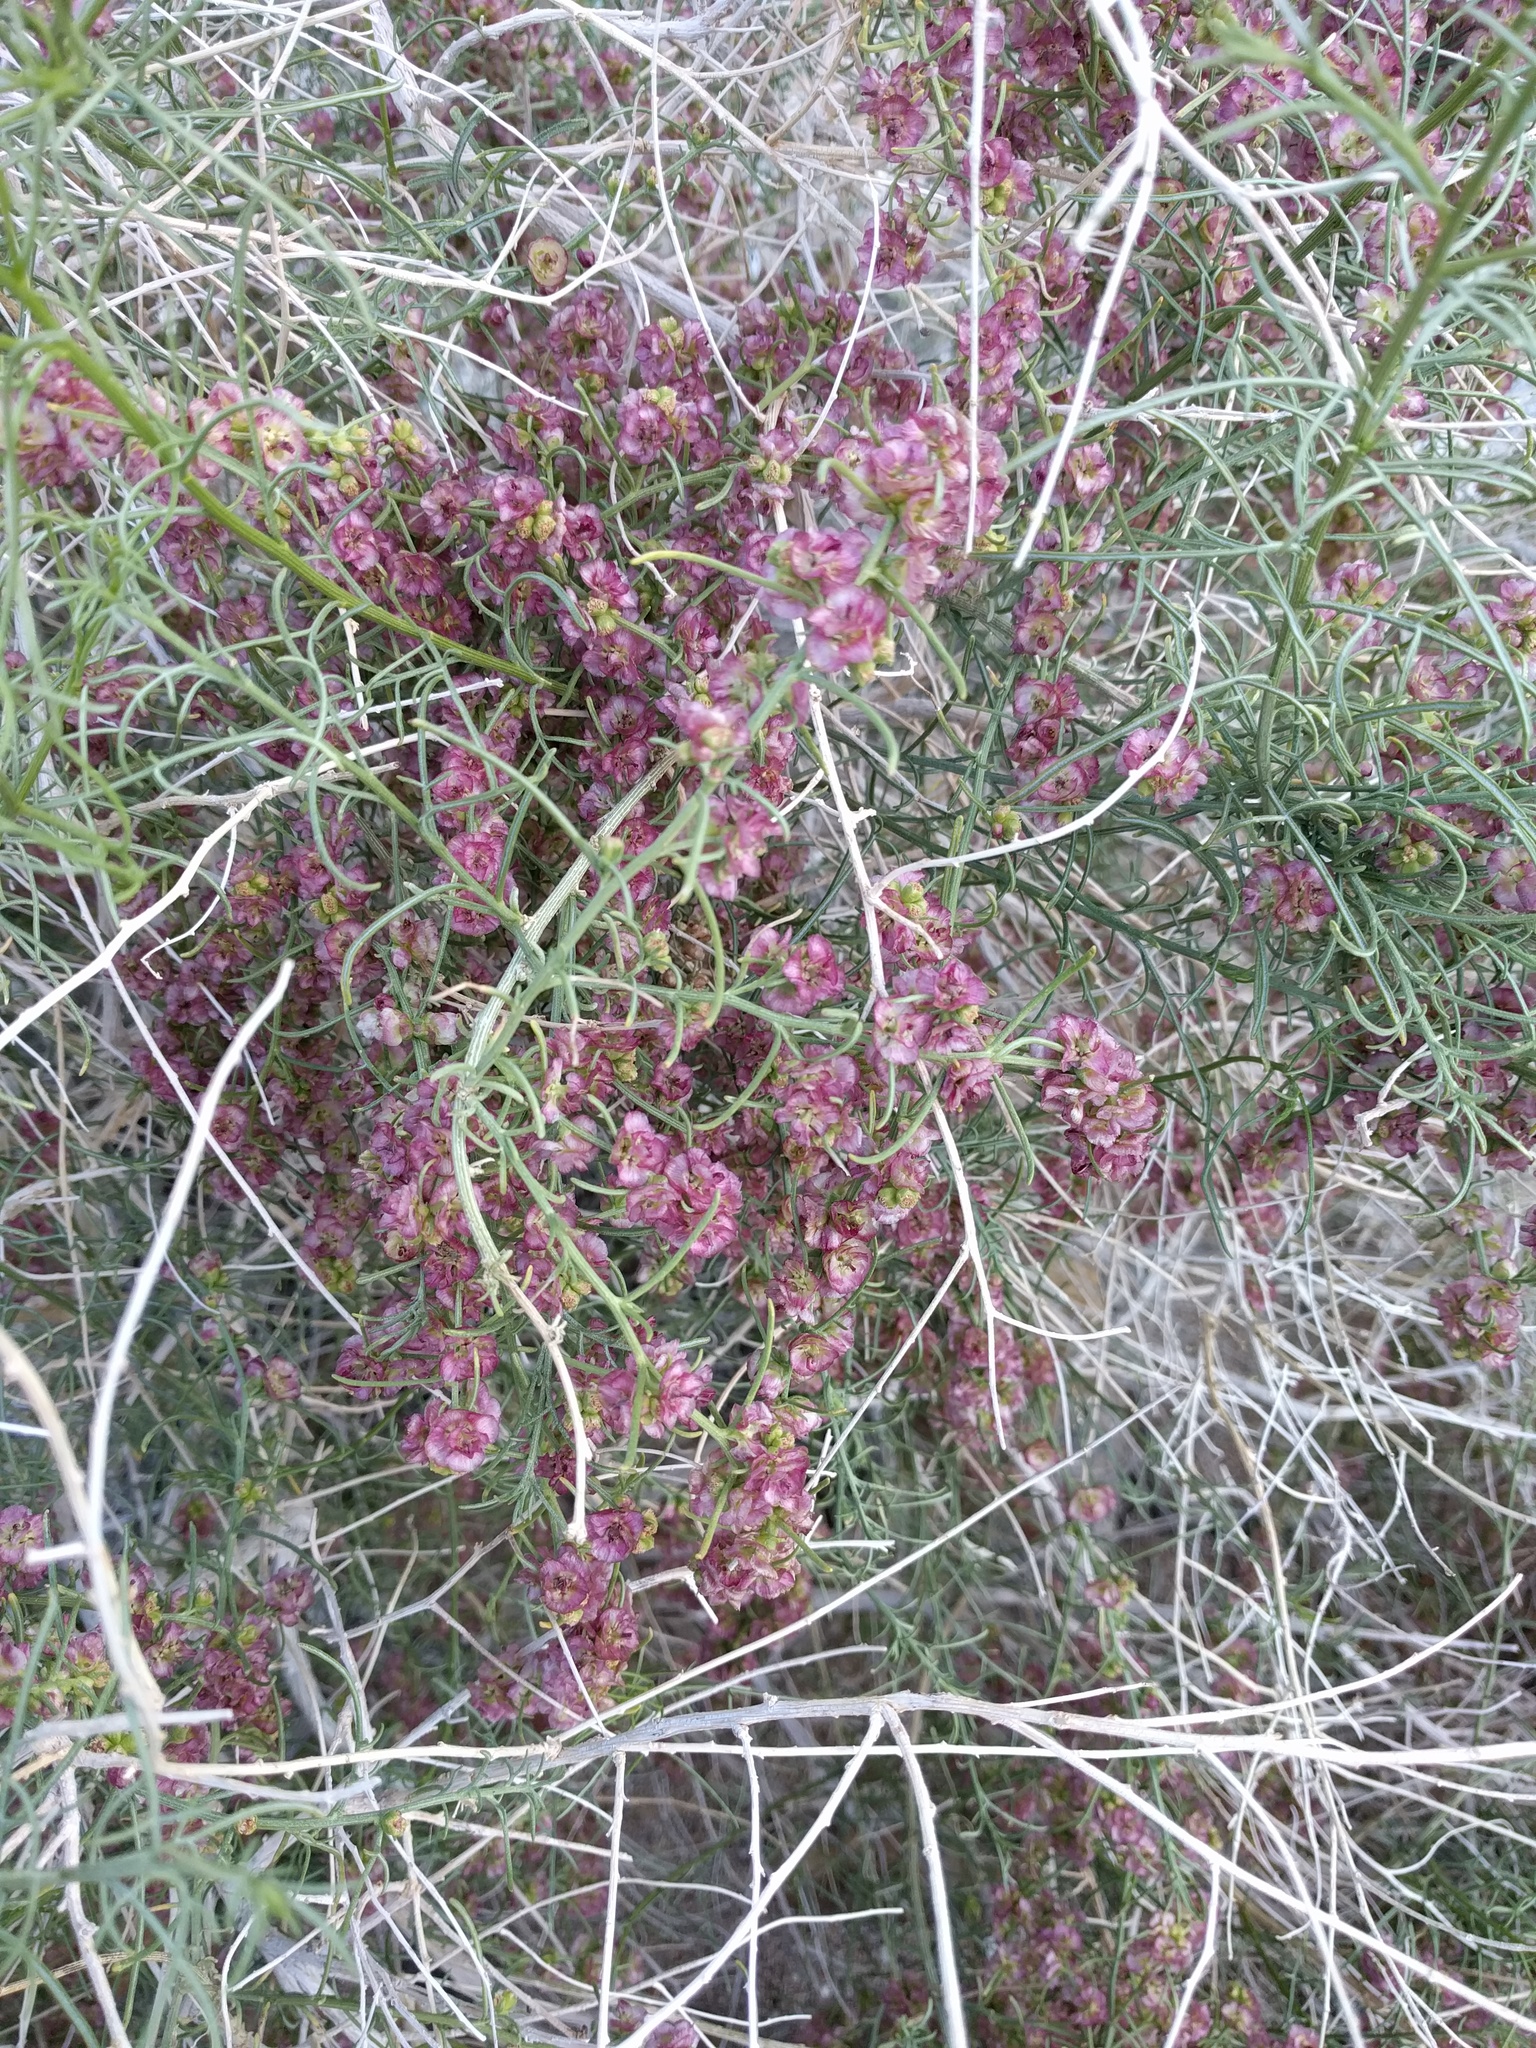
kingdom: Plantae
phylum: Tracheophyta
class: Magnoliopsida
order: Asterales
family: Asteraceae
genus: Ambrosia
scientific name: Ambrosia salsola
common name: Burrobrush
